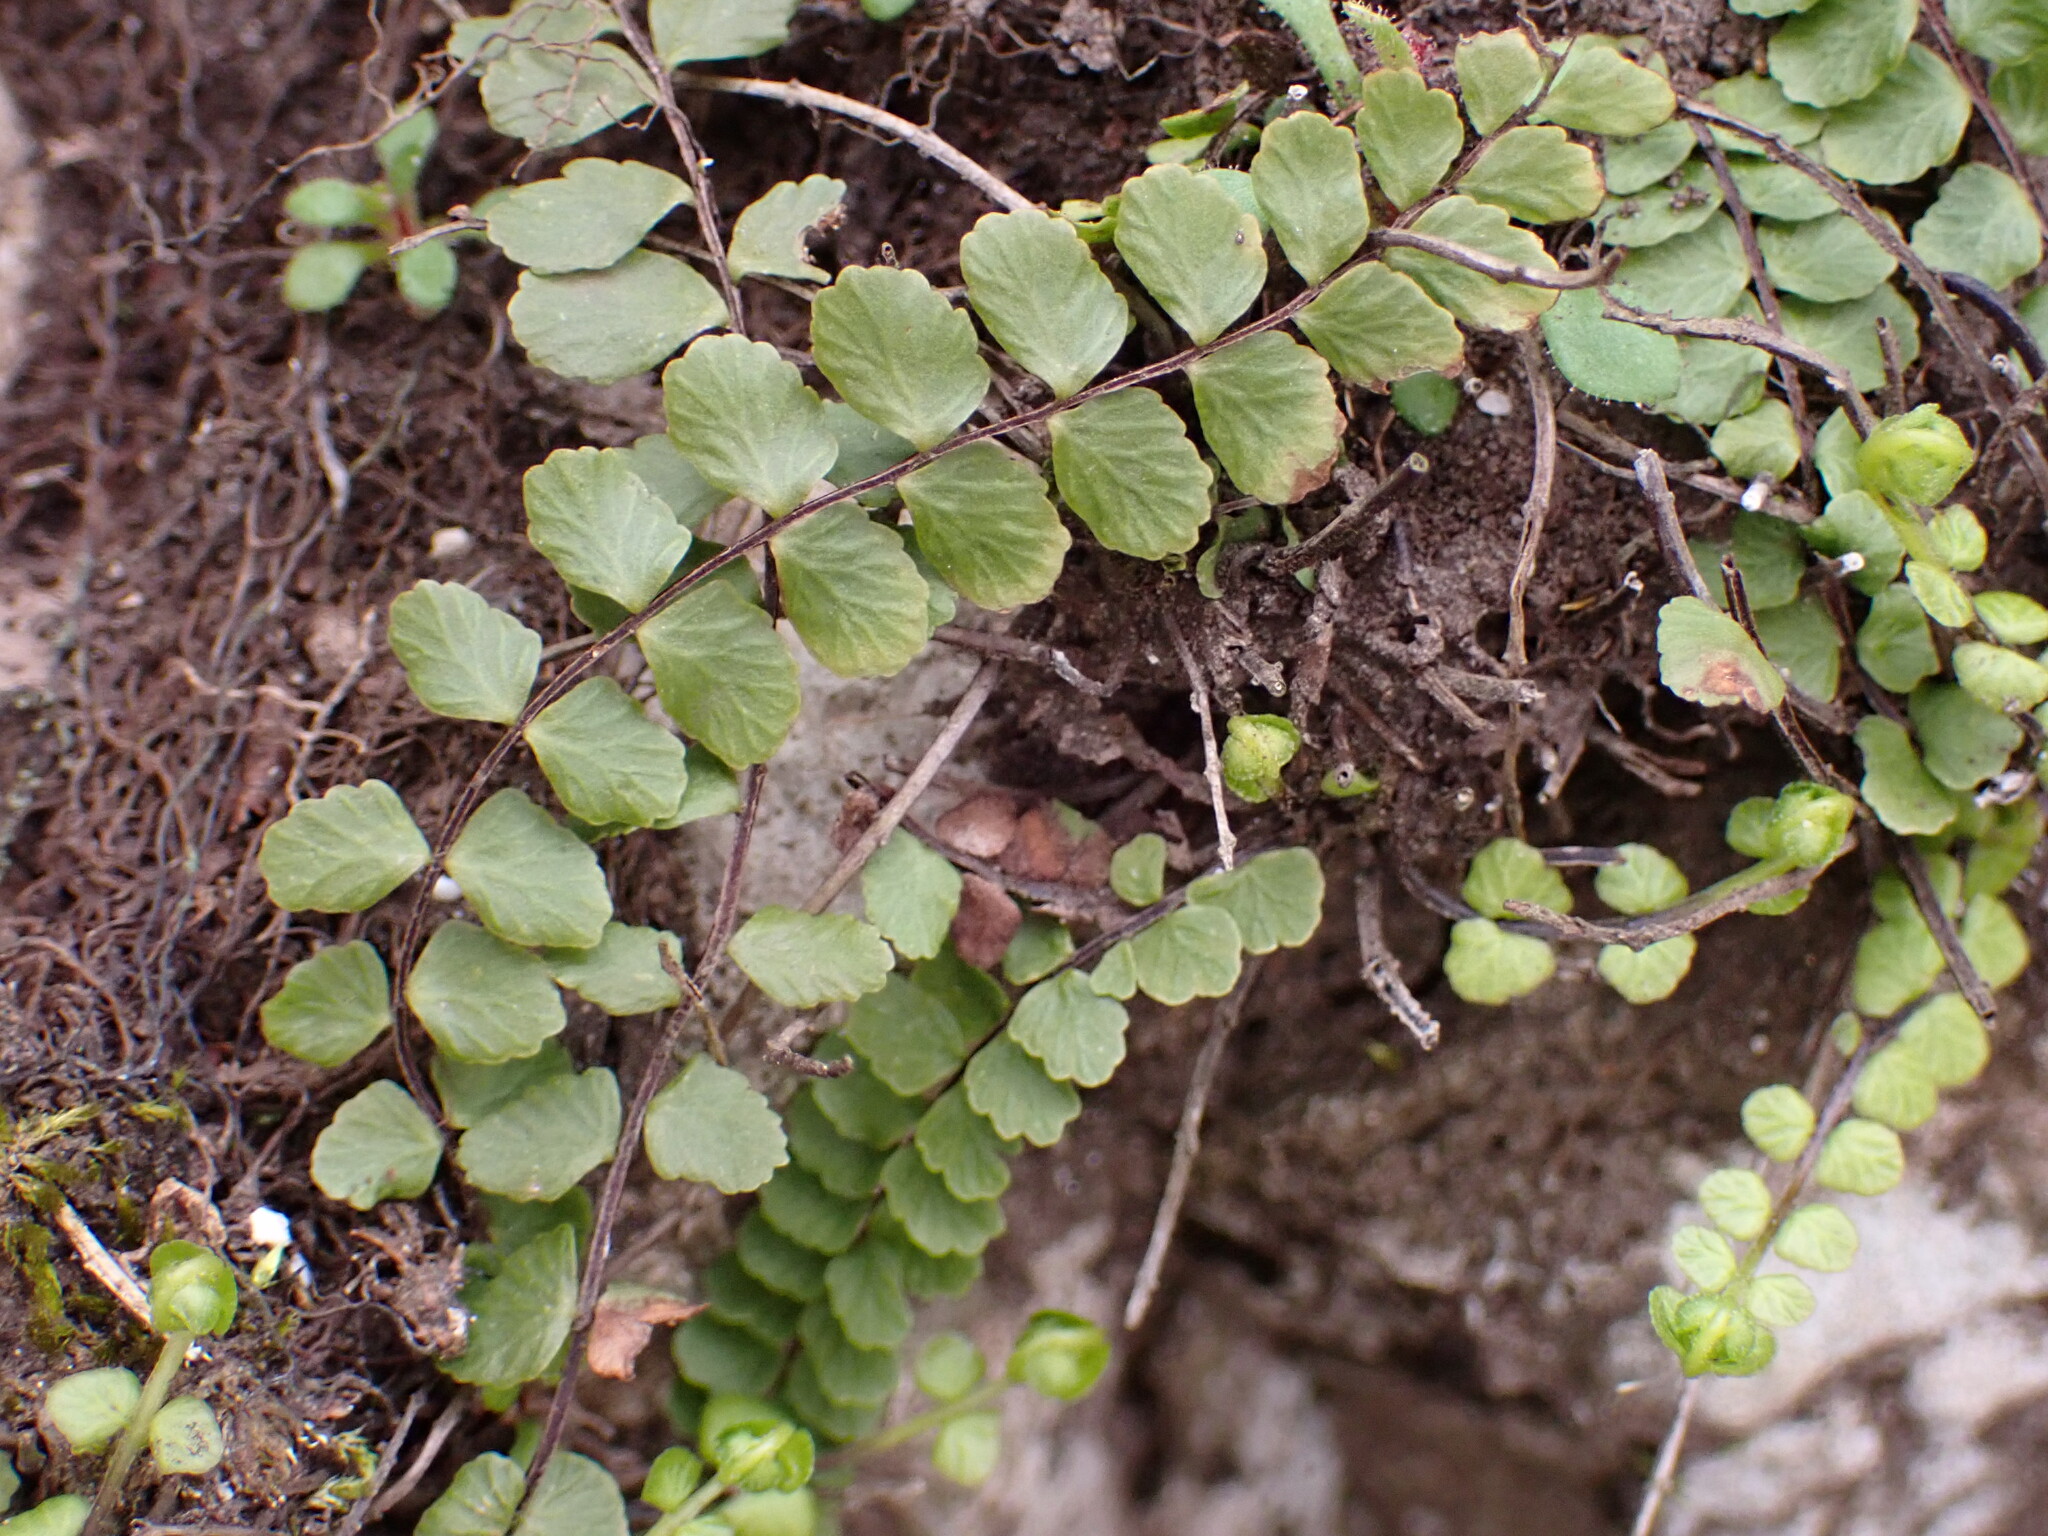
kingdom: Plantae
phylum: Tracheophyta
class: Polypodiopsida
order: Polypodiales
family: Aspleniaceae
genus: Asplenium
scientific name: Asplenium trichomanes
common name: Maidenhair spleenwort
